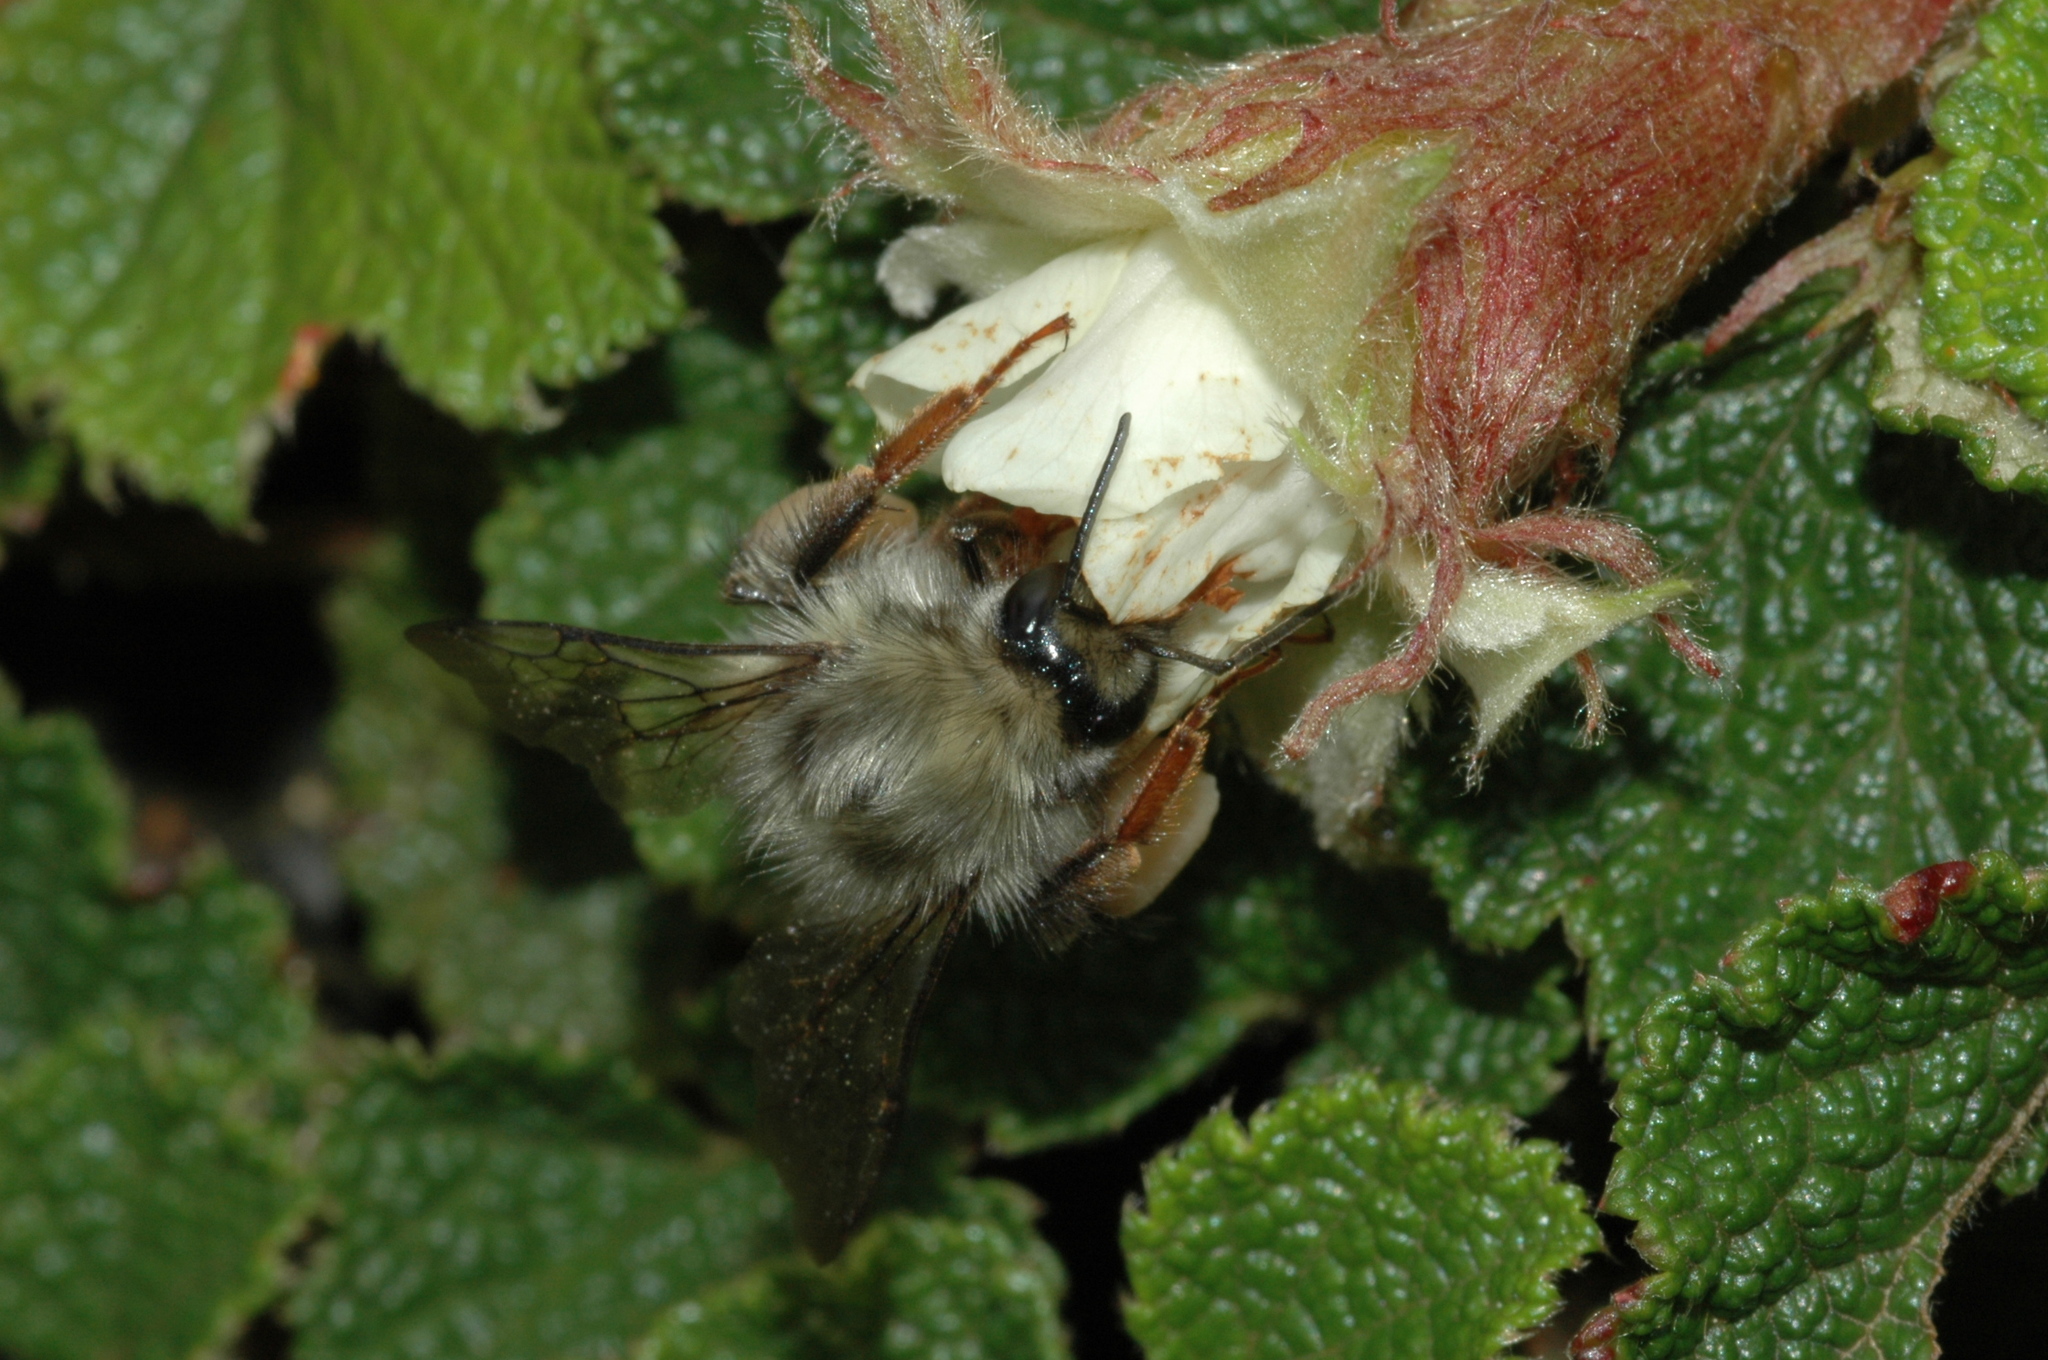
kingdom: Animalia
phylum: Arthropoda
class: Insecta
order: Hymenoptera
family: Apidae
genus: Bombus
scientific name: Bombus sonani
